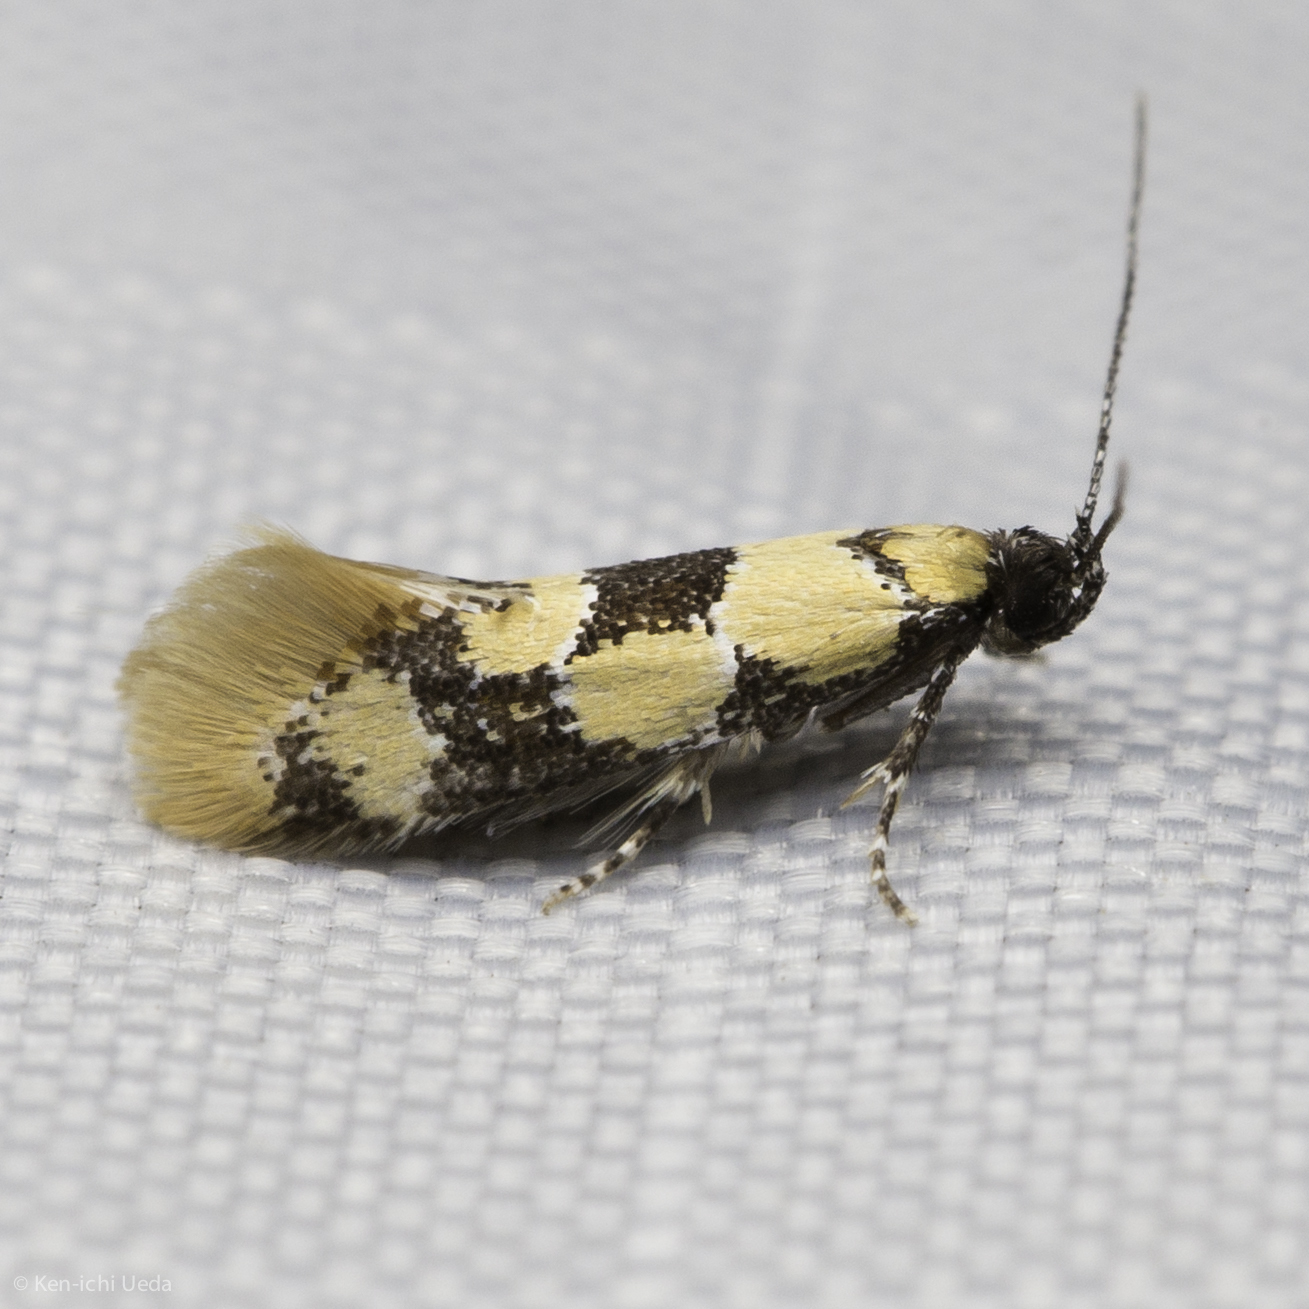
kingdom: Animalia
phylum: Arthropoda
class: Insecta
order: Lepidoptera
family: Oecophoridae
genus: Decantha
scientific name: Decantha stonda
